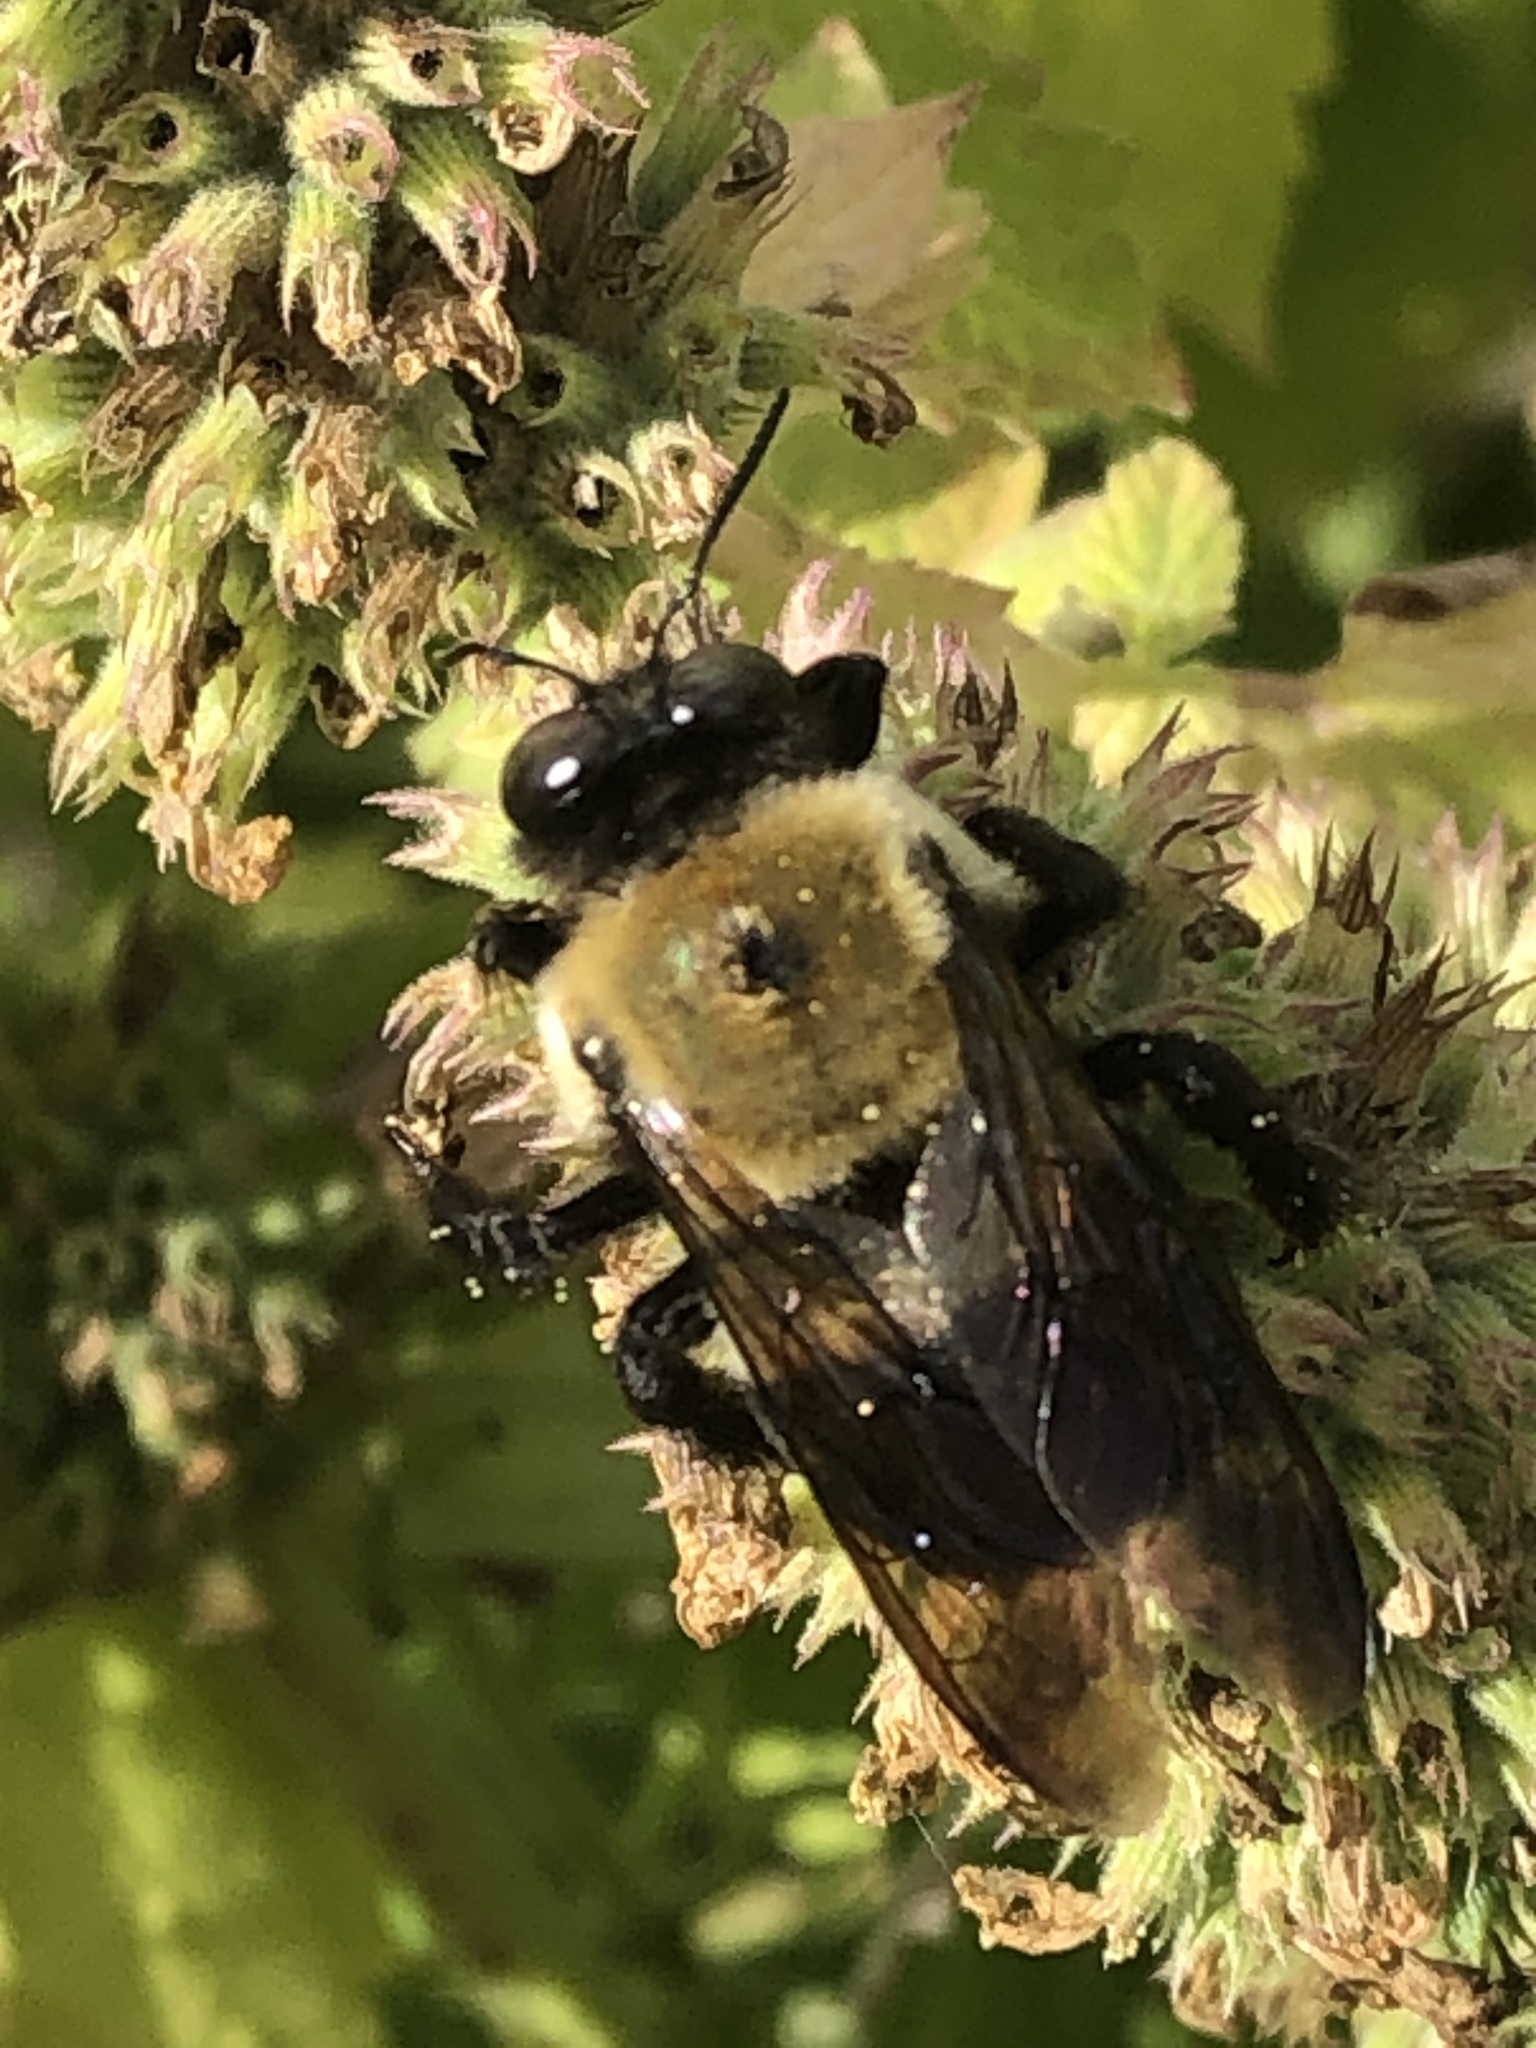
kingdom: Animalia
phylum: Arthropoda
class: Insecta
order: Hymenoptera
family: Apidae
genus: Xylocopa
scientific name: Xylocopa virginica
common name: Carpenter bee
